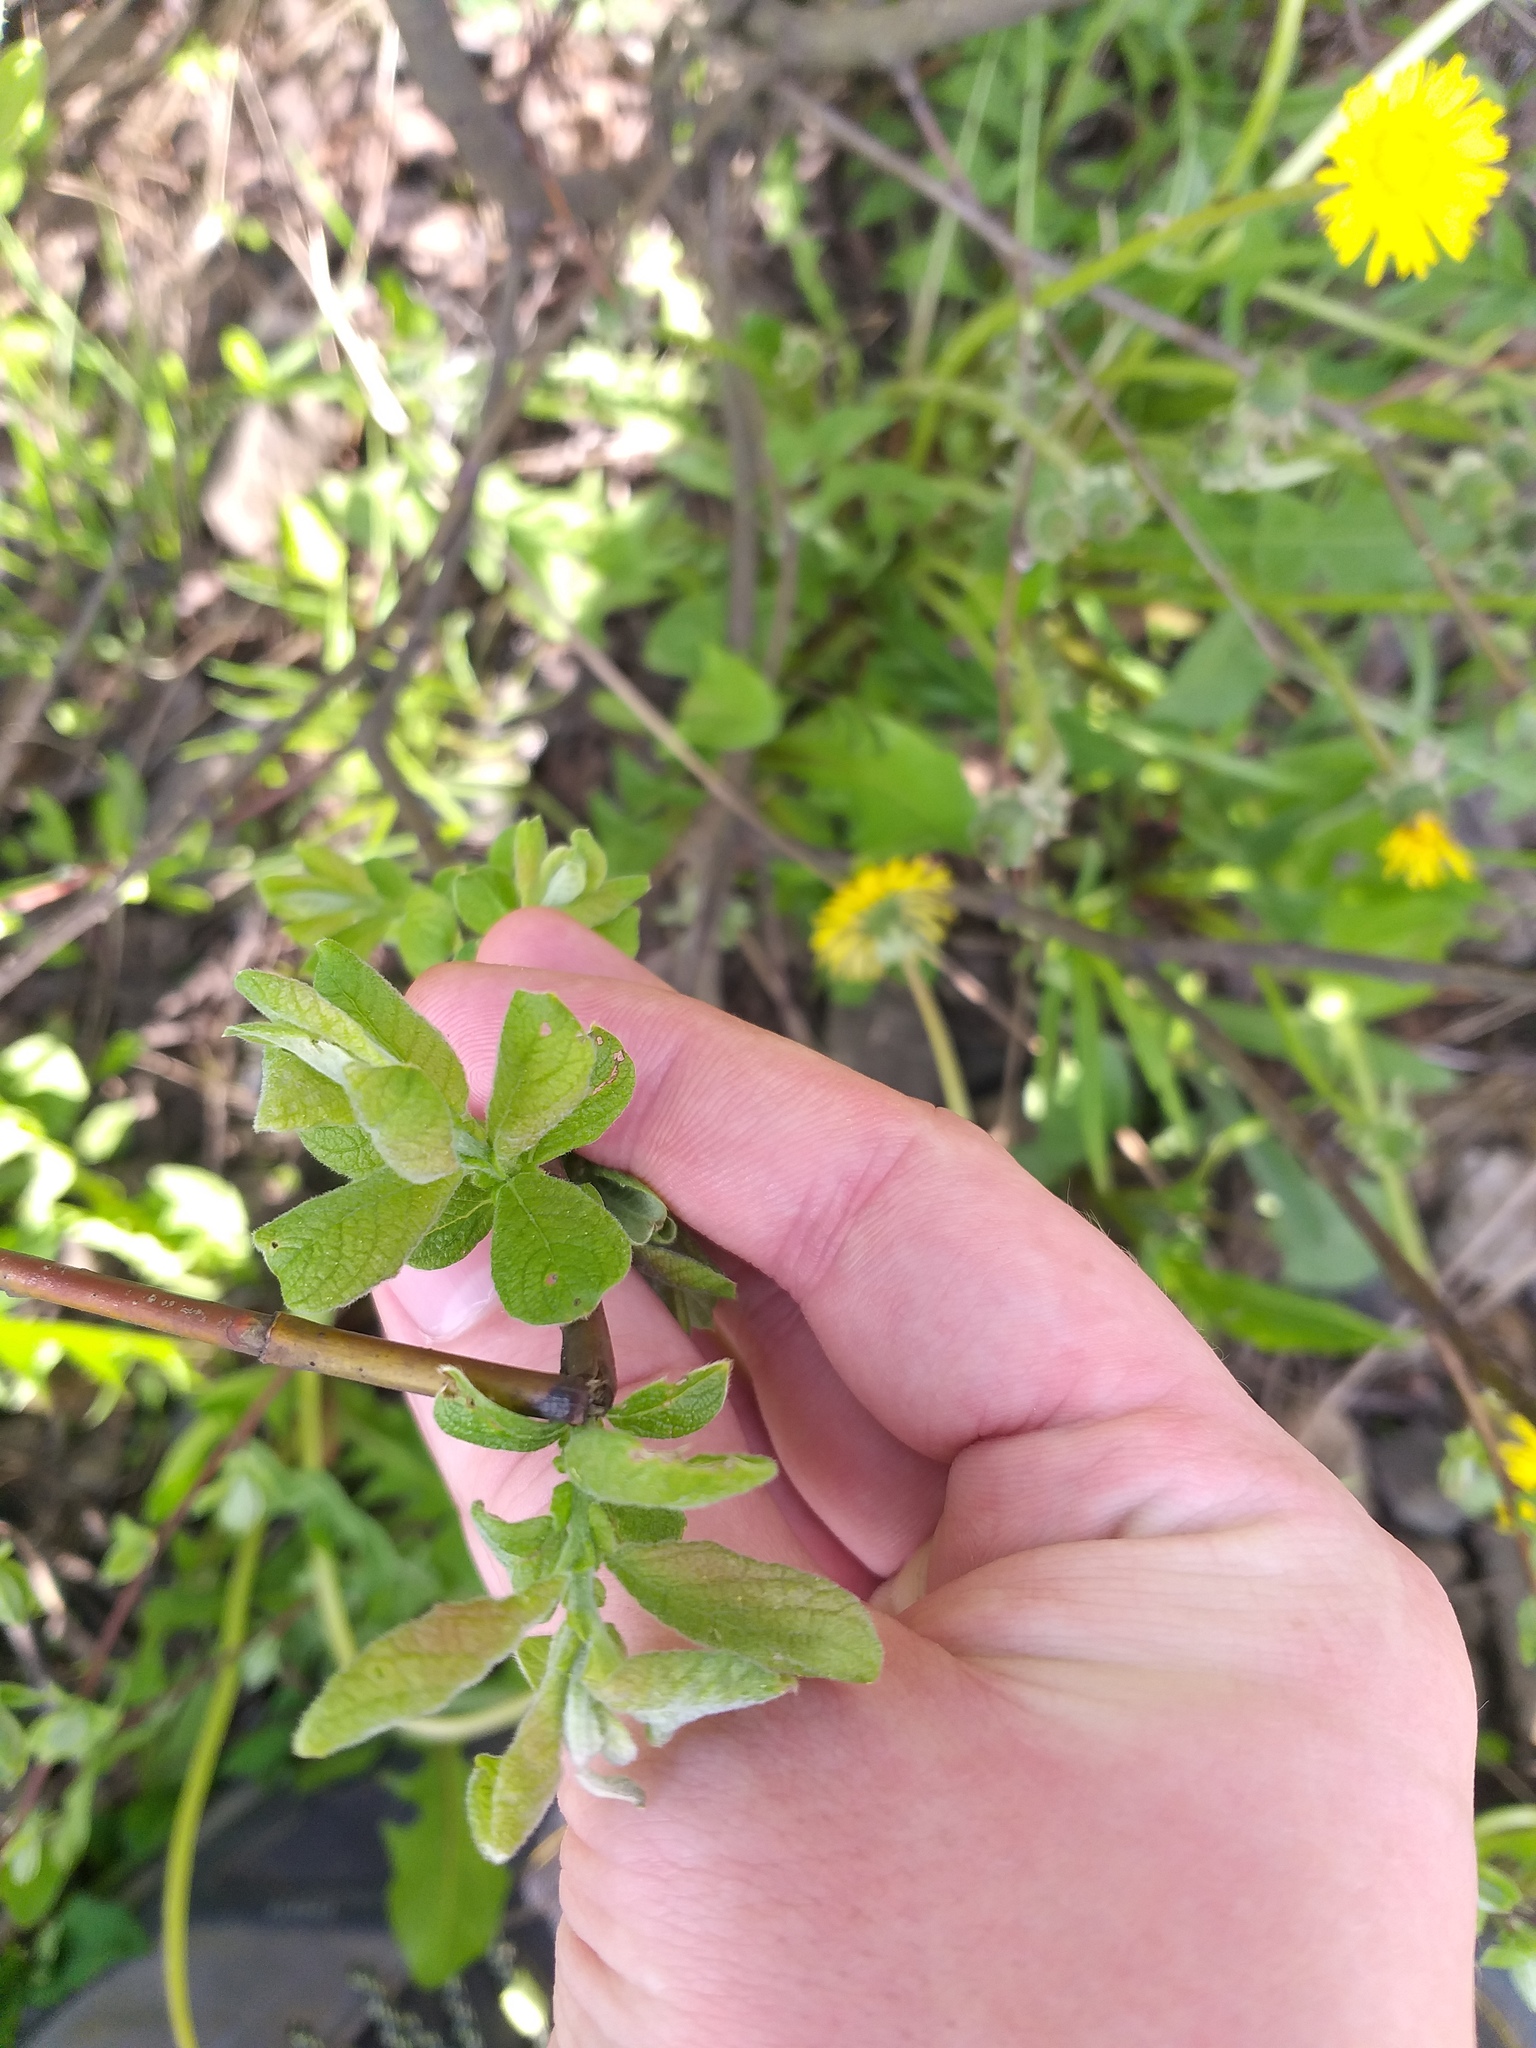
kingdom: Plantae
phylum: Tracheophyta
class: Magnoliopsida
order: Malpighiales
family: Salicaceae
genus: Salix
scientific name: Salix aurita
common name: Eared willow
